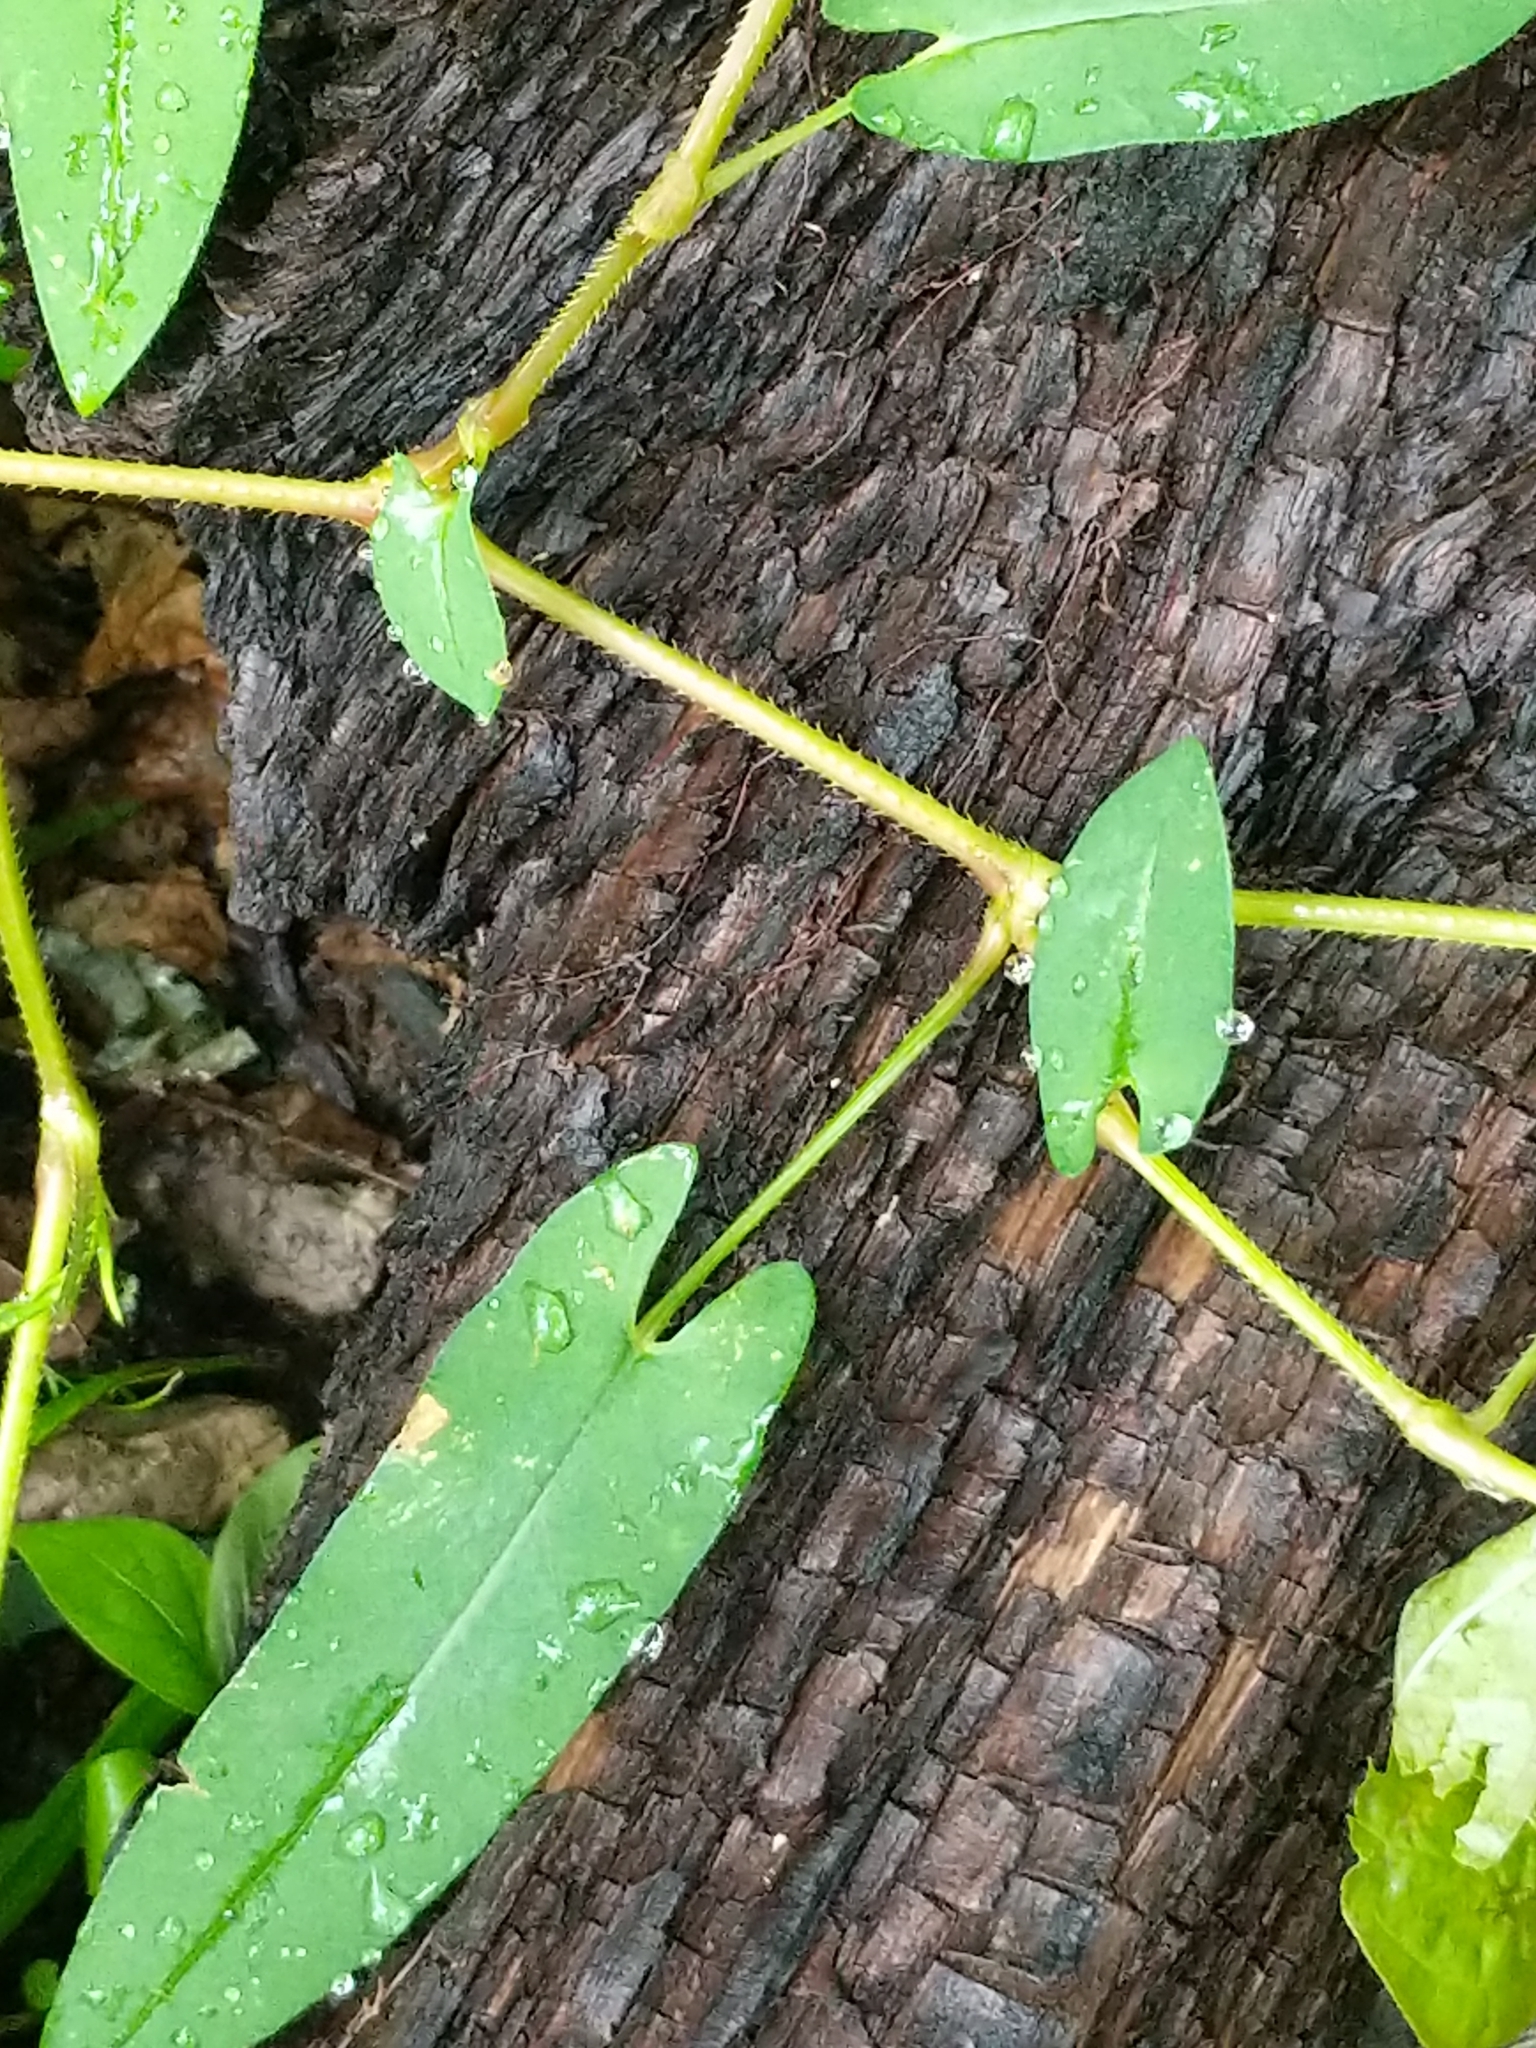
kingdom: Plantae
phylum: Tracheophyta
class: Magnoliopsida
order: Caryophyllales
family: Polygonaceae
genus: Persicaria
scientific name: Persicaria sagittata
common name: American tearthumb
